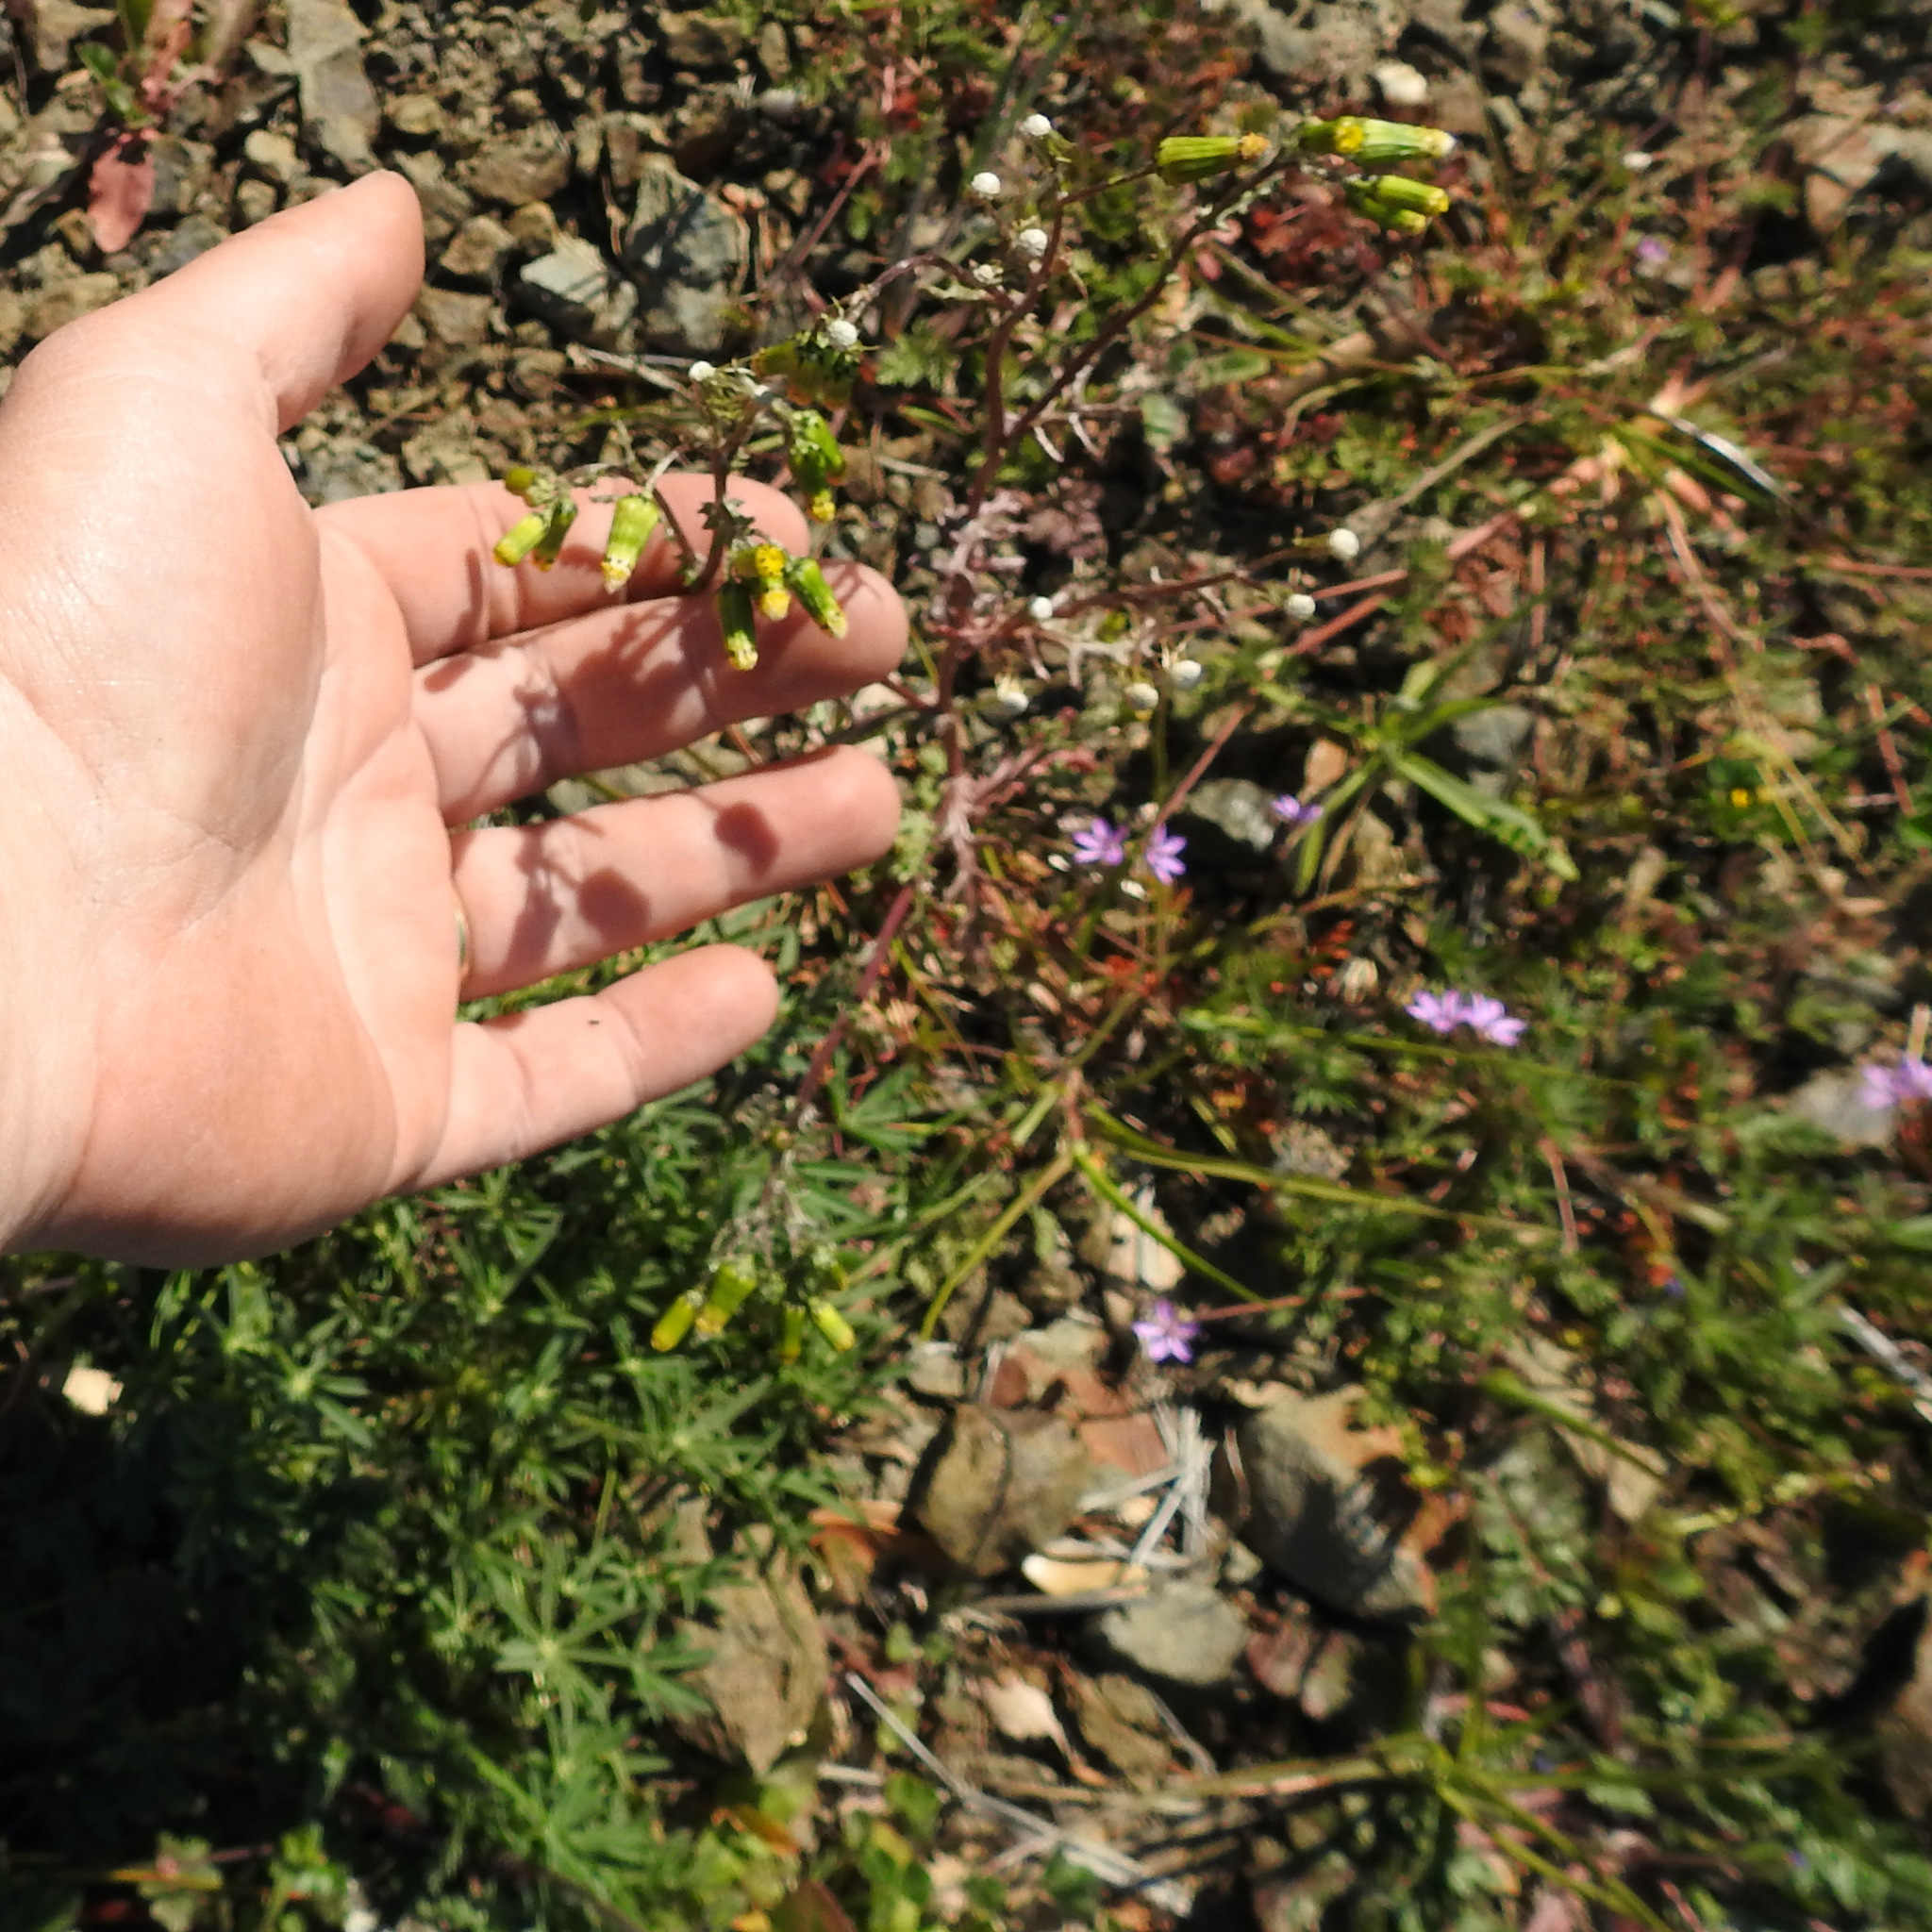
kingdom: Plantae
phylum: Tracheophyta
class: Magnoliopsida
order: Asterales
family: Asteraceae
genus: Senecio
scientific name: Senecio vulgaris
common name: Old-man-in-the-spring
